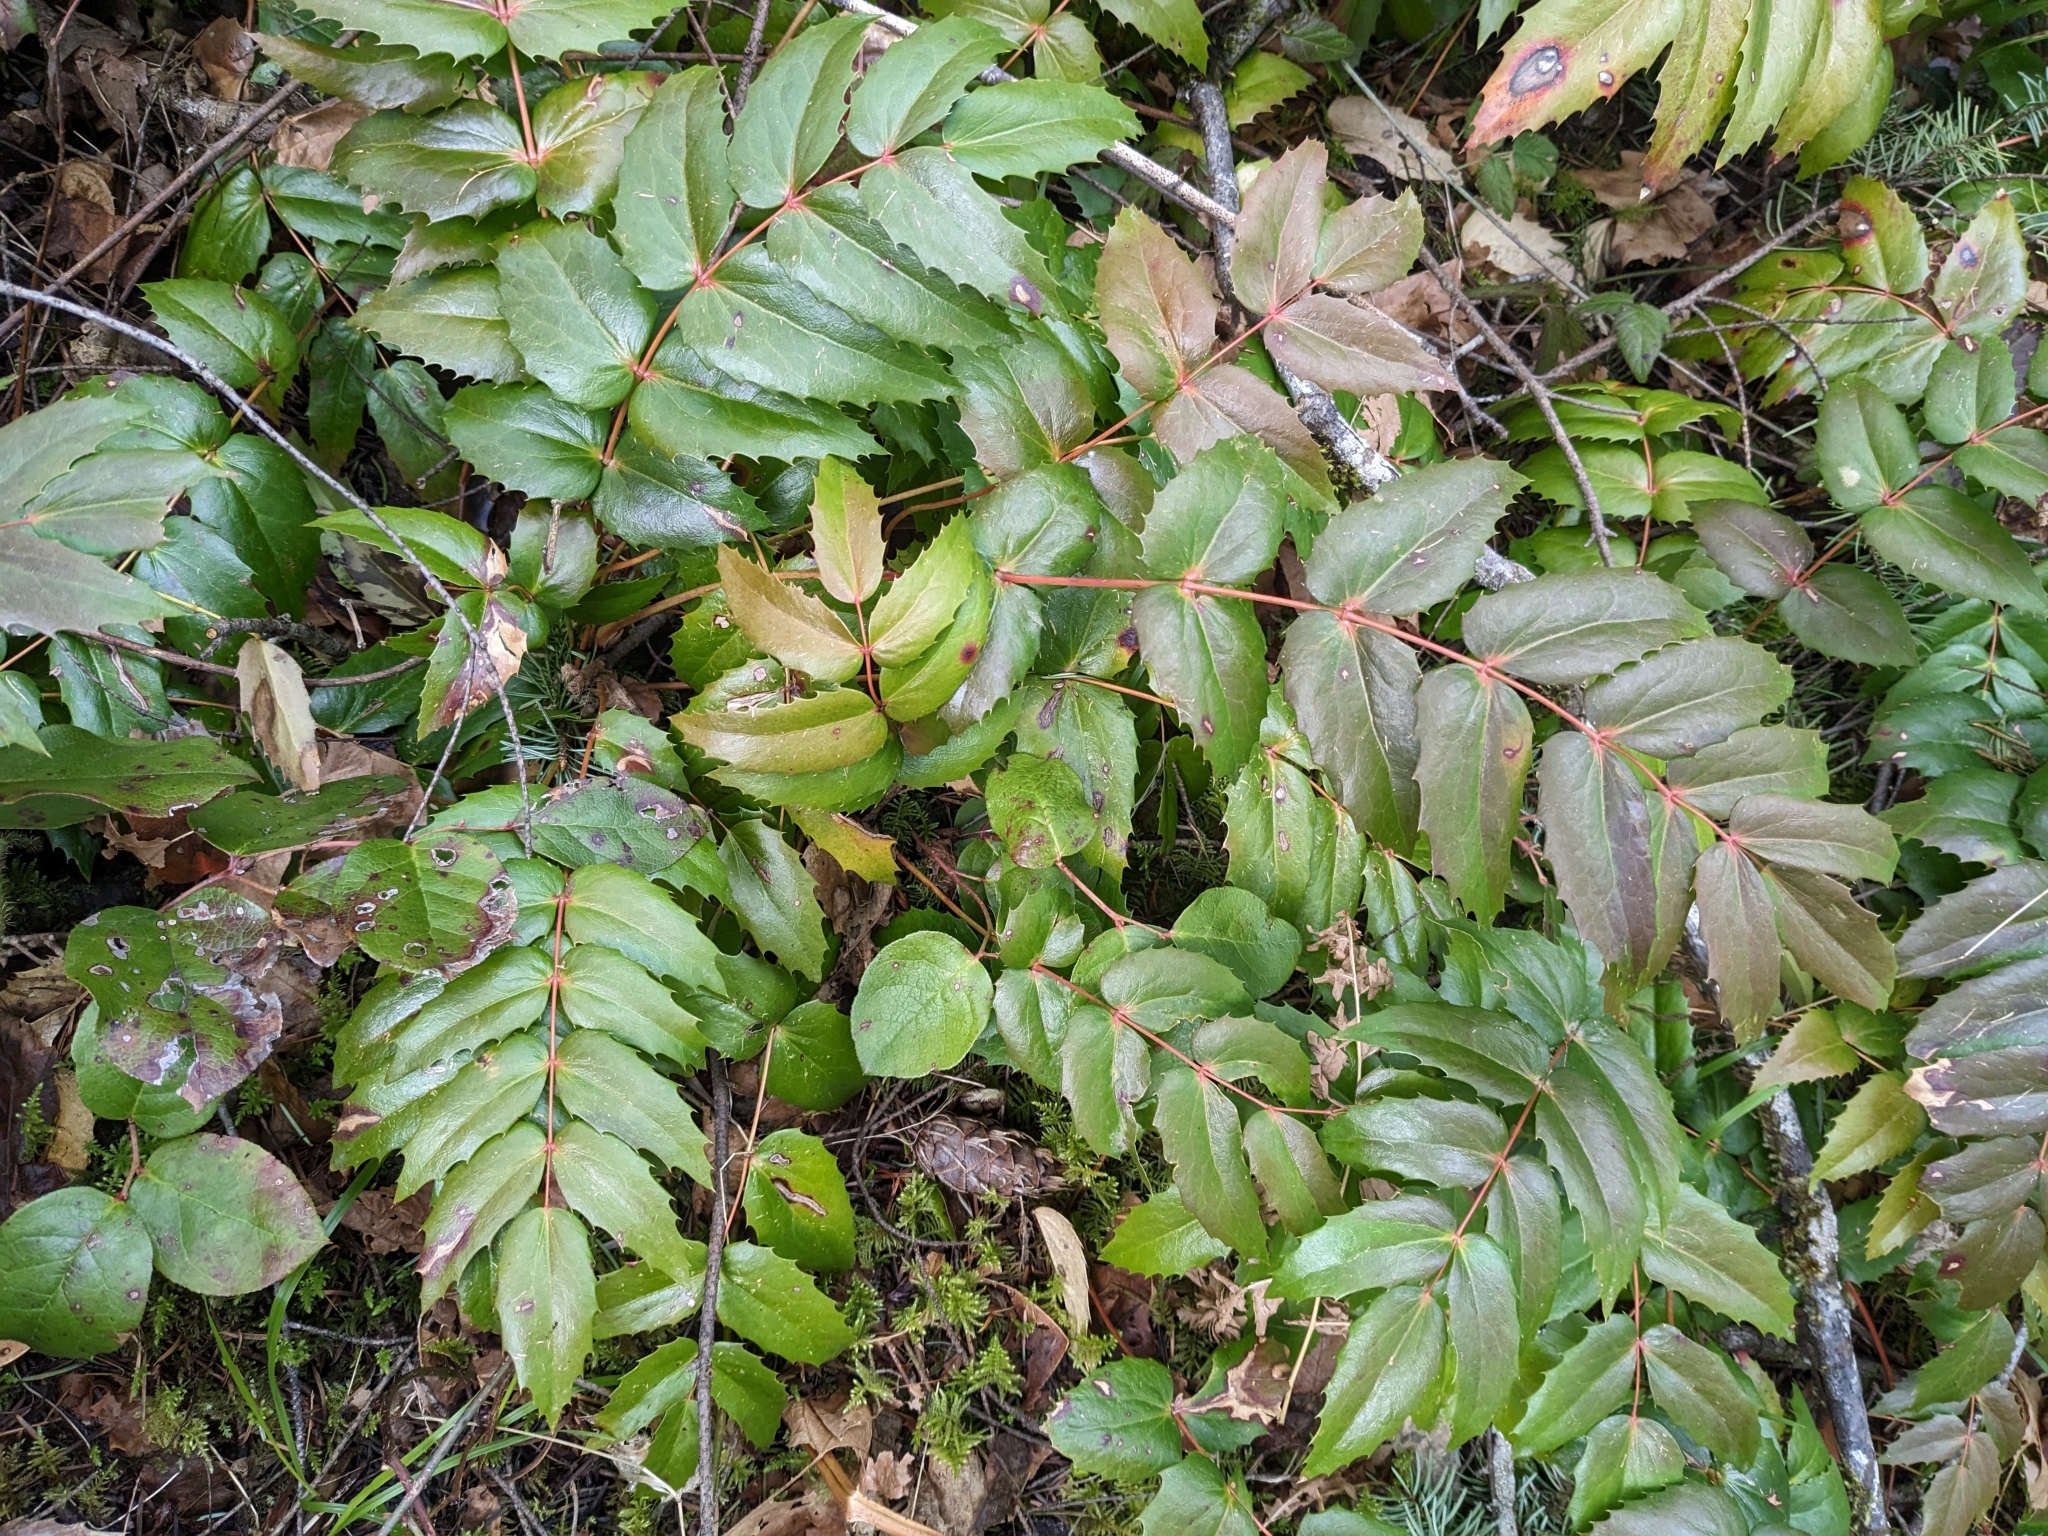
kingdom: Plantae
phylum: Tracheophyta
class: Magnoliopsida
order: Ranunculales
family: Berberidaceae
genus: Mahonia
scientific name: Mahonia nervosa
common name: Cascade oregon-grape
